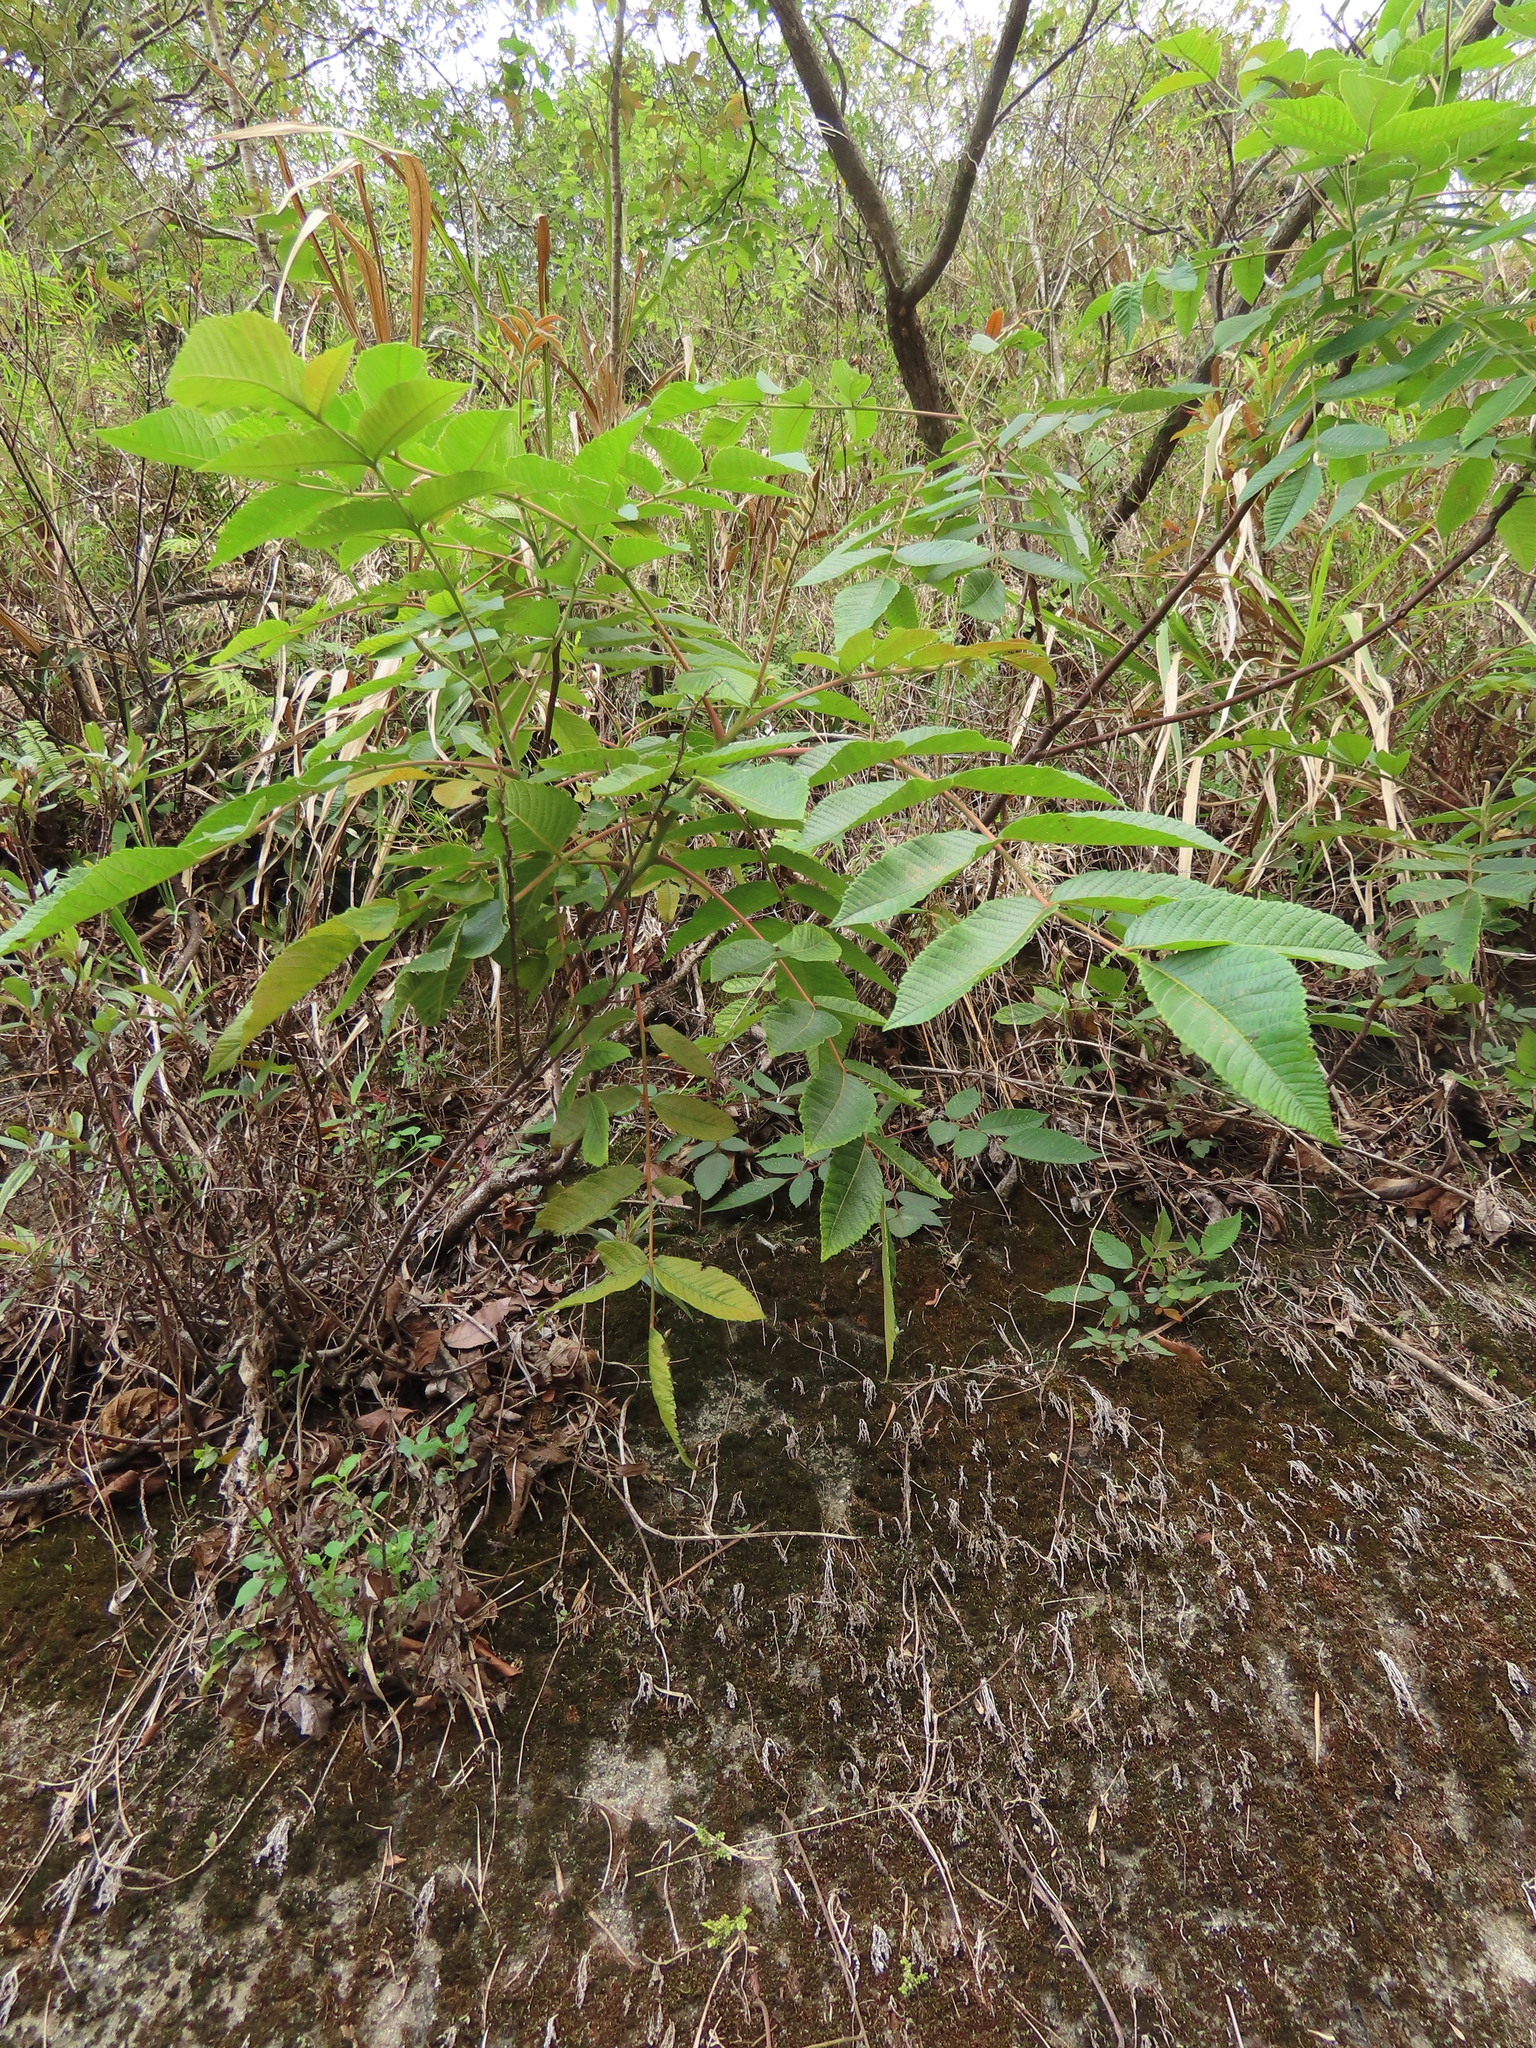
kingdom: Plantae
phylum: Tracheophyta
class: Magnoliopsida
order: Sapindales
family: Anacardiaceae
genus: Rhus
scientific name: Rhus chinensis
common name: Chinese gall
